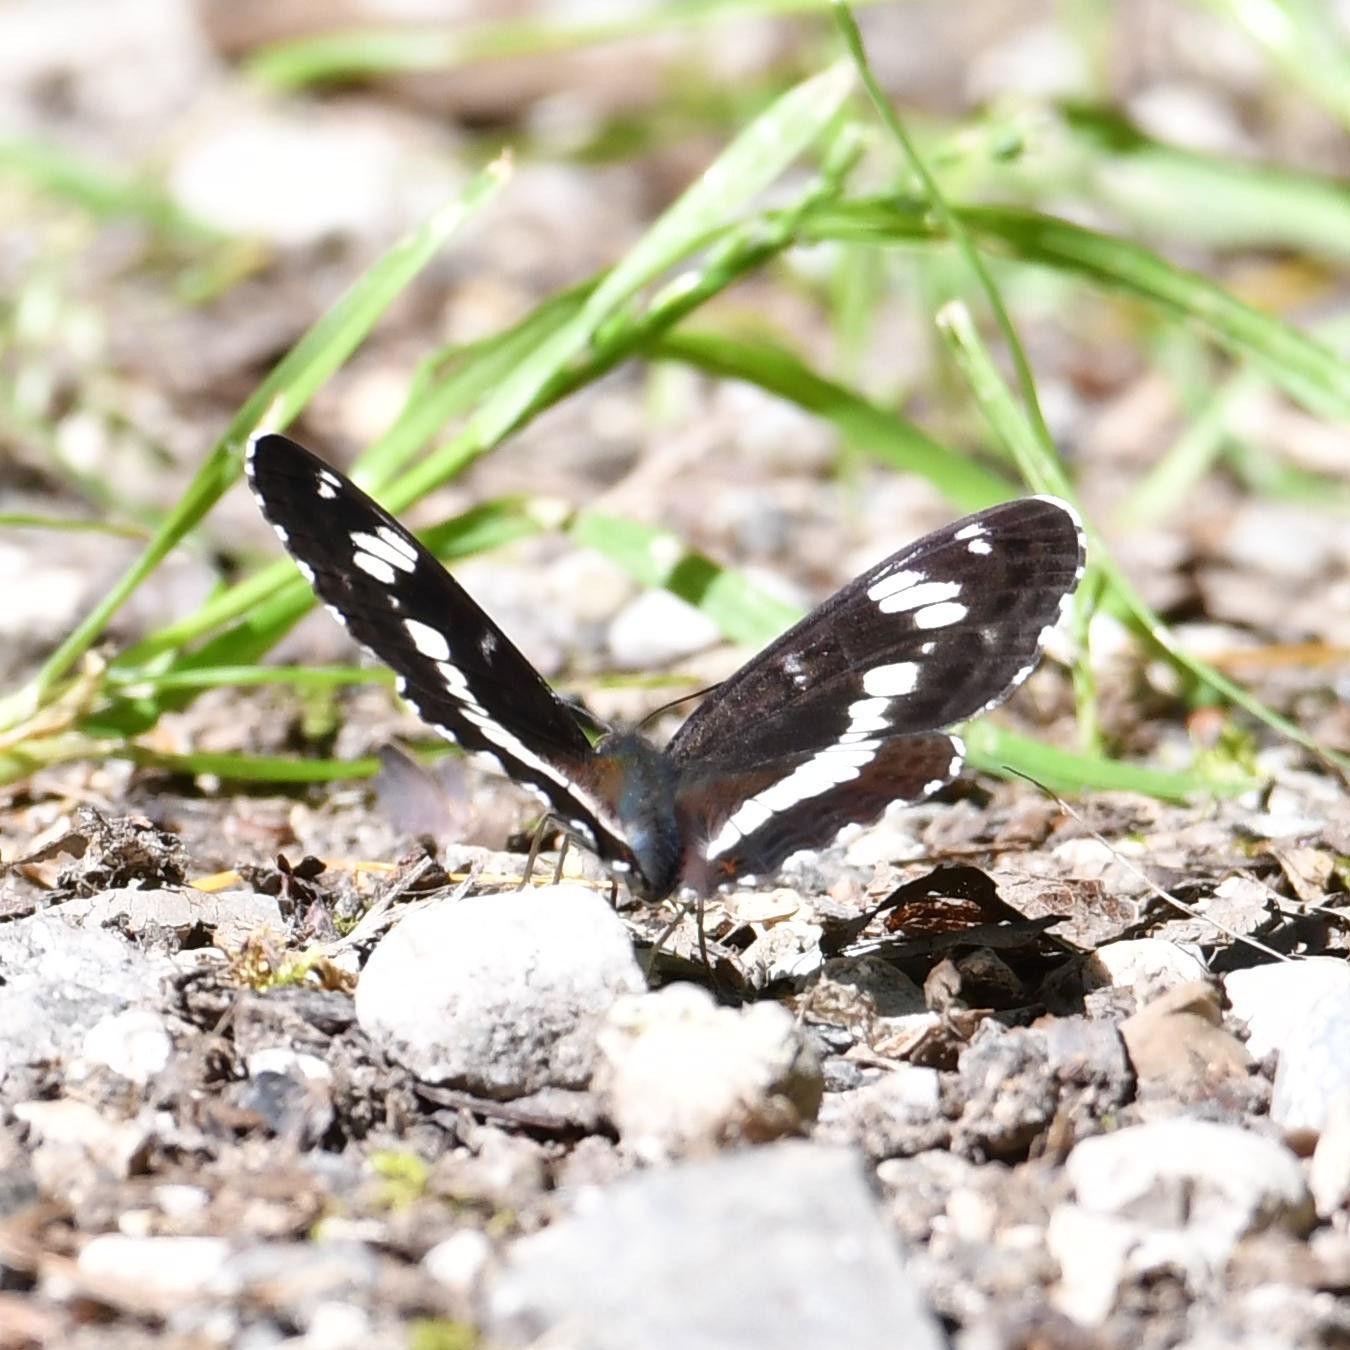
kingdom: Animalia
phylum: Arthropoda
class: Insecta
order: Lepidoptera
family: Nymphalidae
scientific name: Nymphalidae
